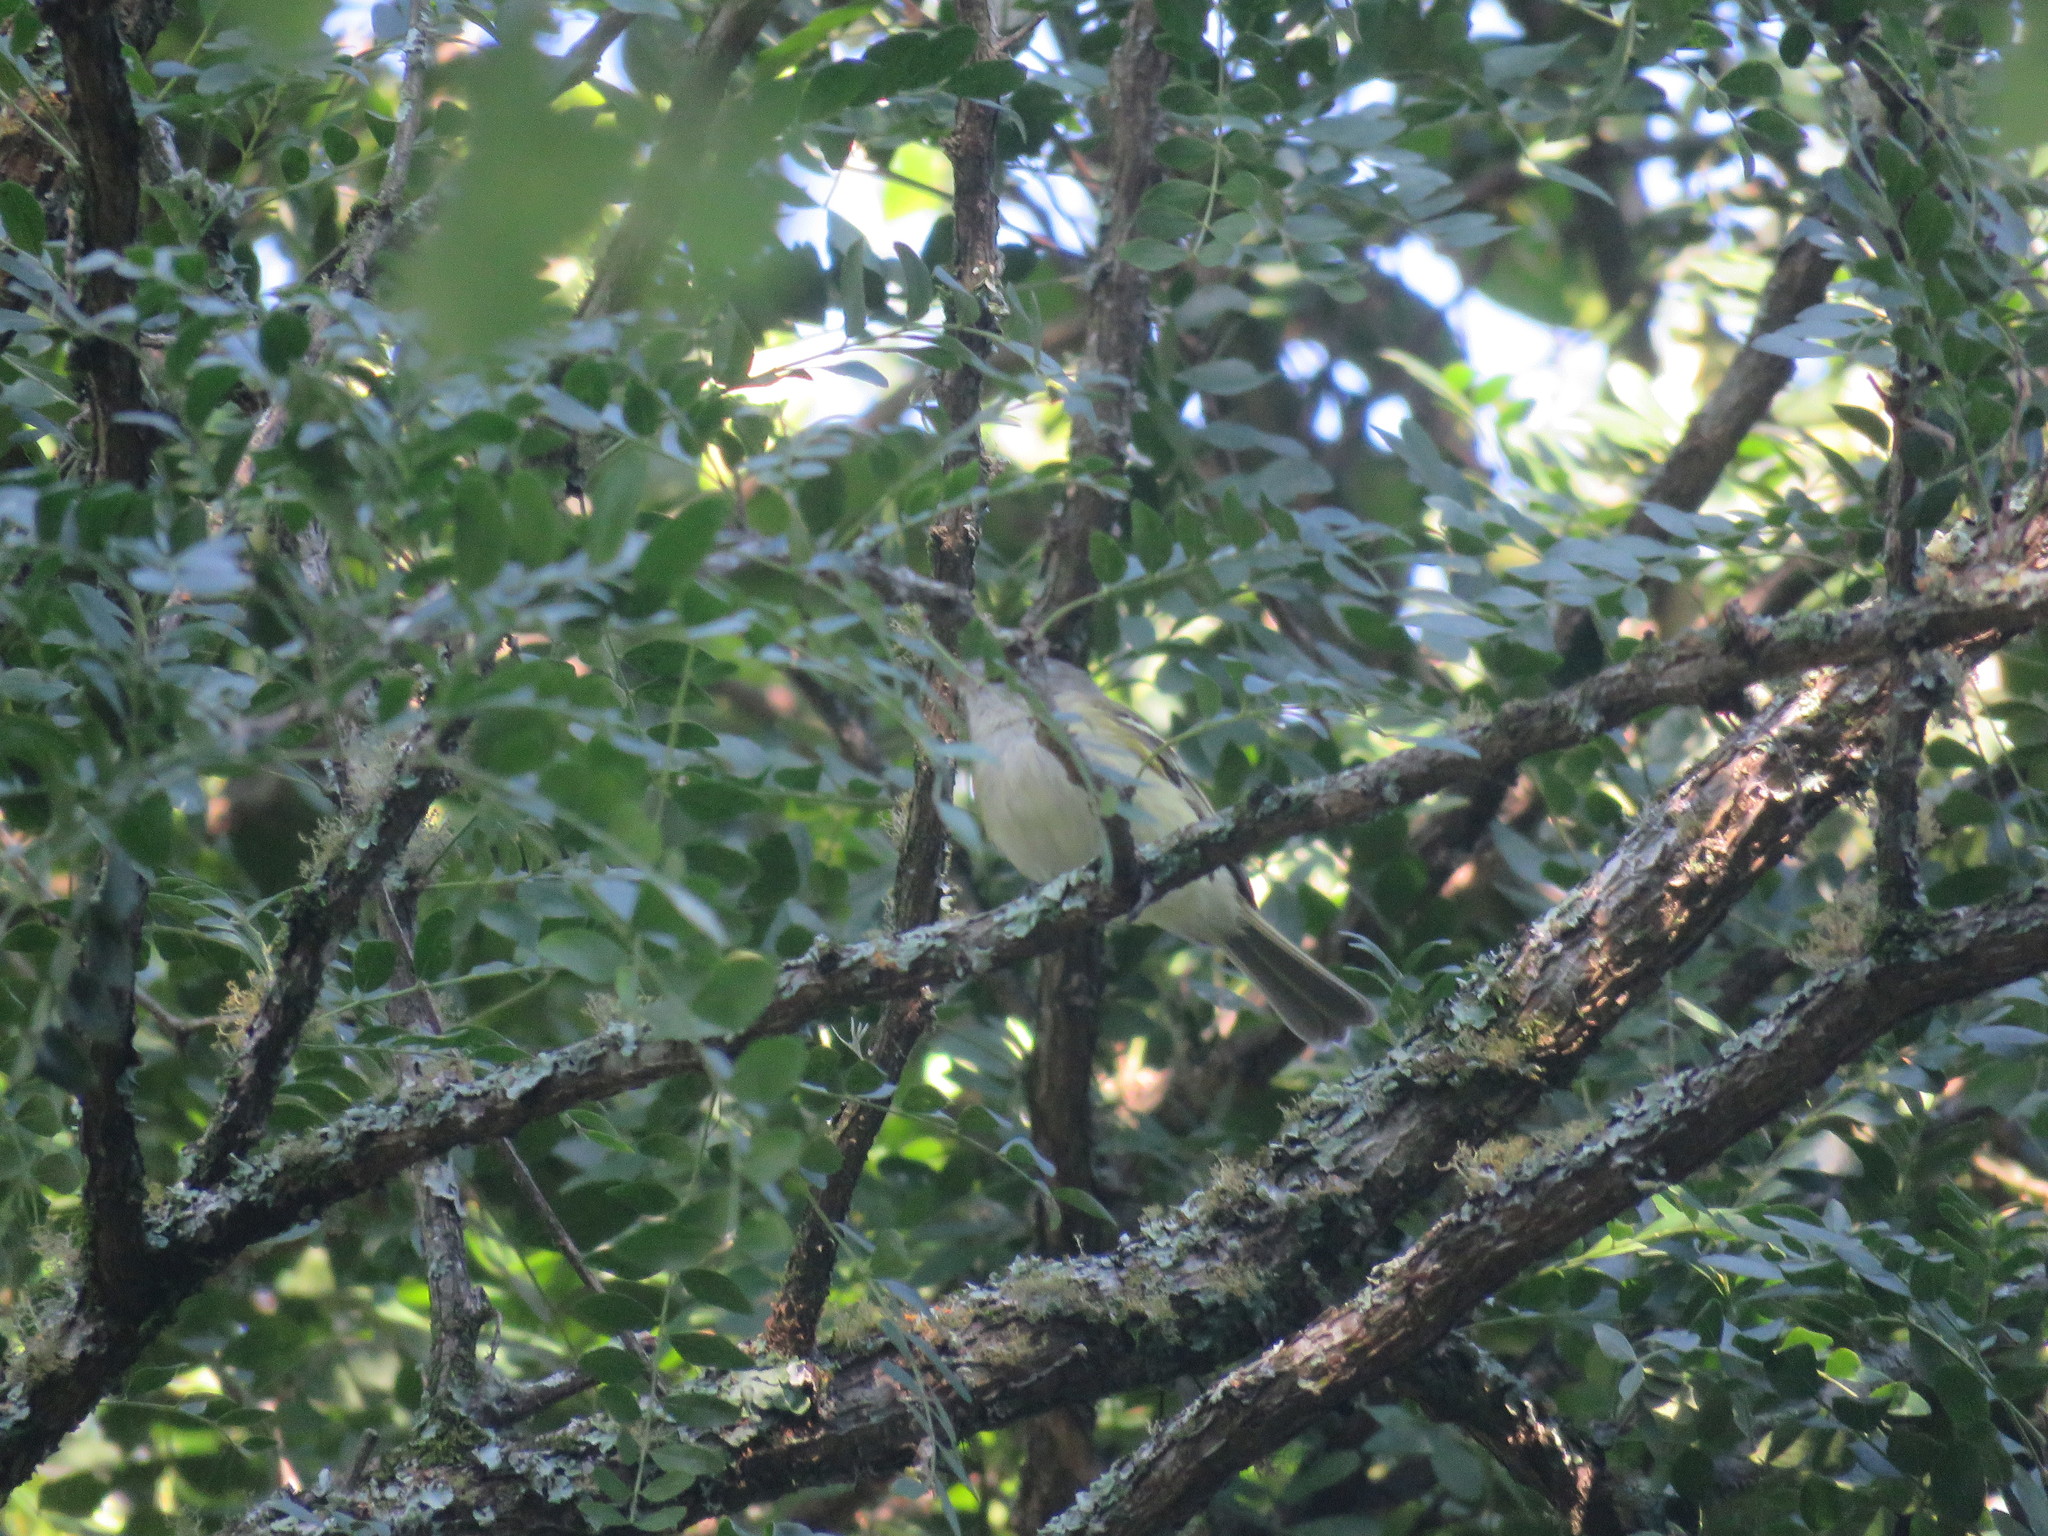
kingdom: Animalia
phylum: Chordata
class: Aves
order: Passeriformes
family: Tyrannidae
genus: Phyllomyias
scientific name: Phyllomyias sclateri
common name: Sclater's tyrannulet
